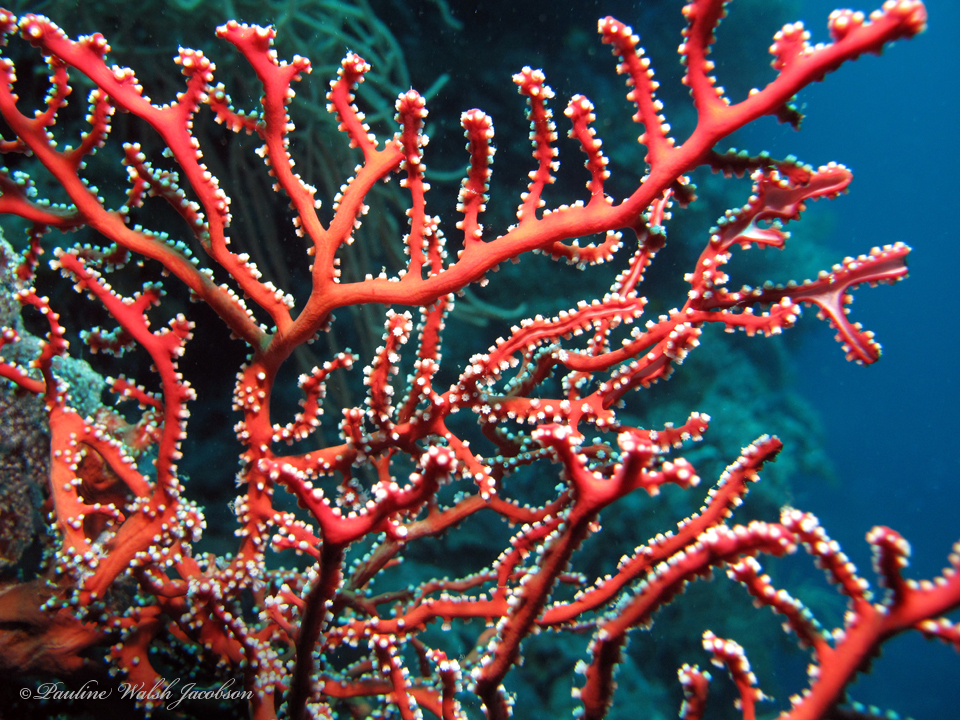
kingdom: Animalia
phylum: Cnidaria
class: Anthozoa
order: Malacalcyonacea
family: Melithaeidae
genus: Iciligorgia
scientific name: Iciligorgia rubra
